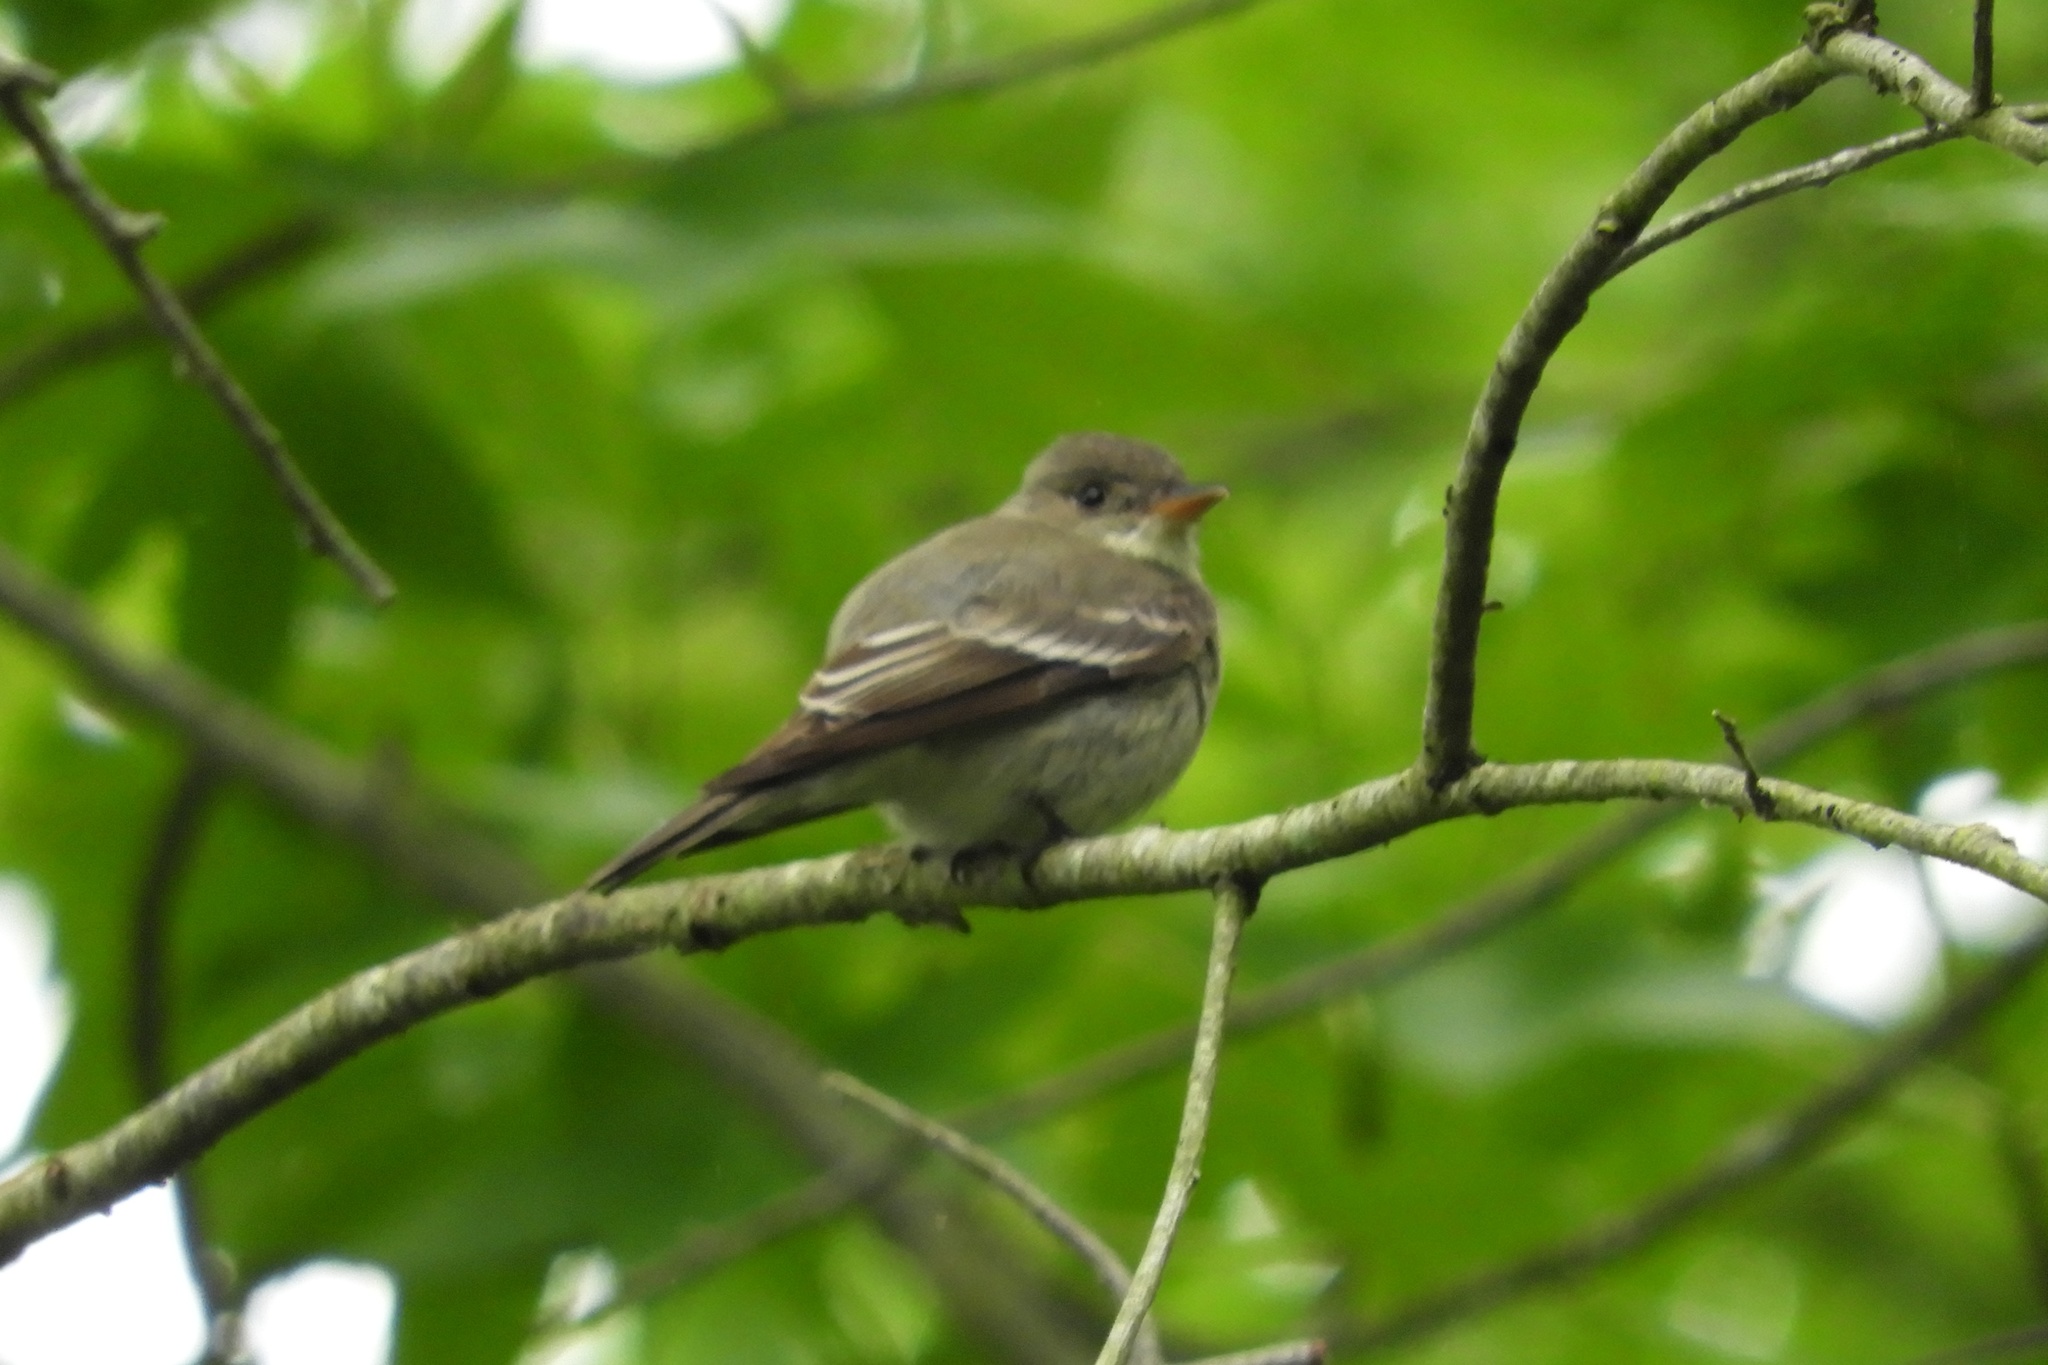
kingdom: Animalia
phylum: Chordata
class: Aves
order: Passeriformes
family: Tyrannidae
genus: Contopus
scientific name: Contopus virens
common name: Eastern wood-pewee
